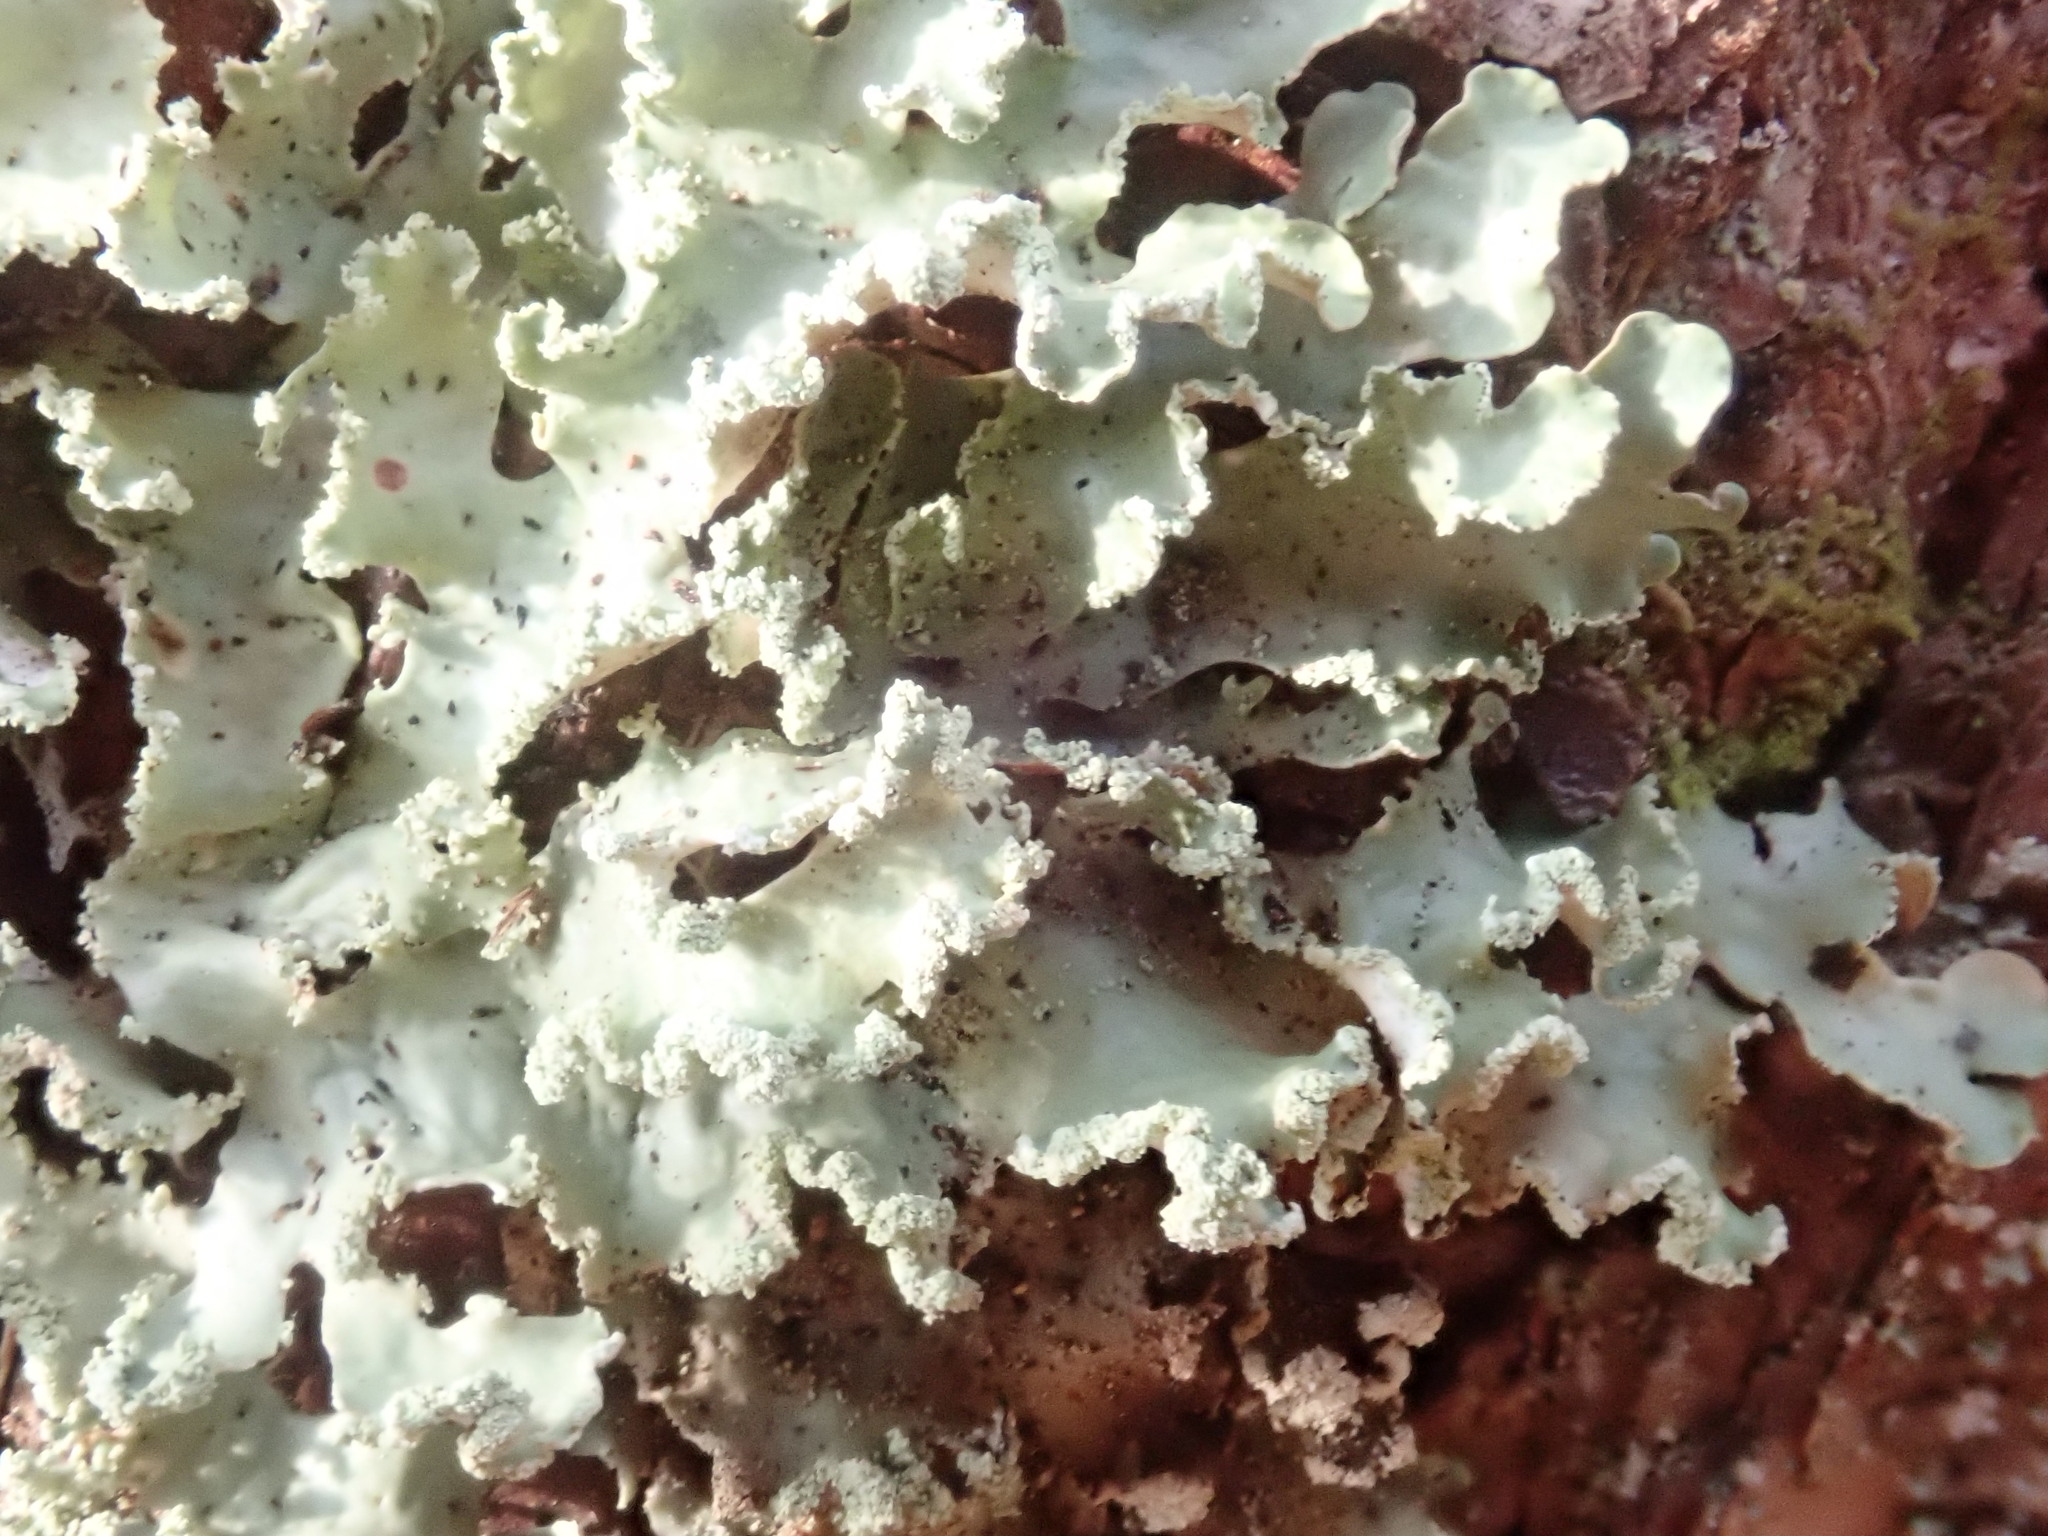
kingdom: Fungi
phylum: Ascomycota
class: Lecanoromycetes
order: Lecanorales
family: Parmeliaceae
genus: Usnocetraria
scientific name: Usnocetraria oakesiana
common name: Yellow ribbon lichen
